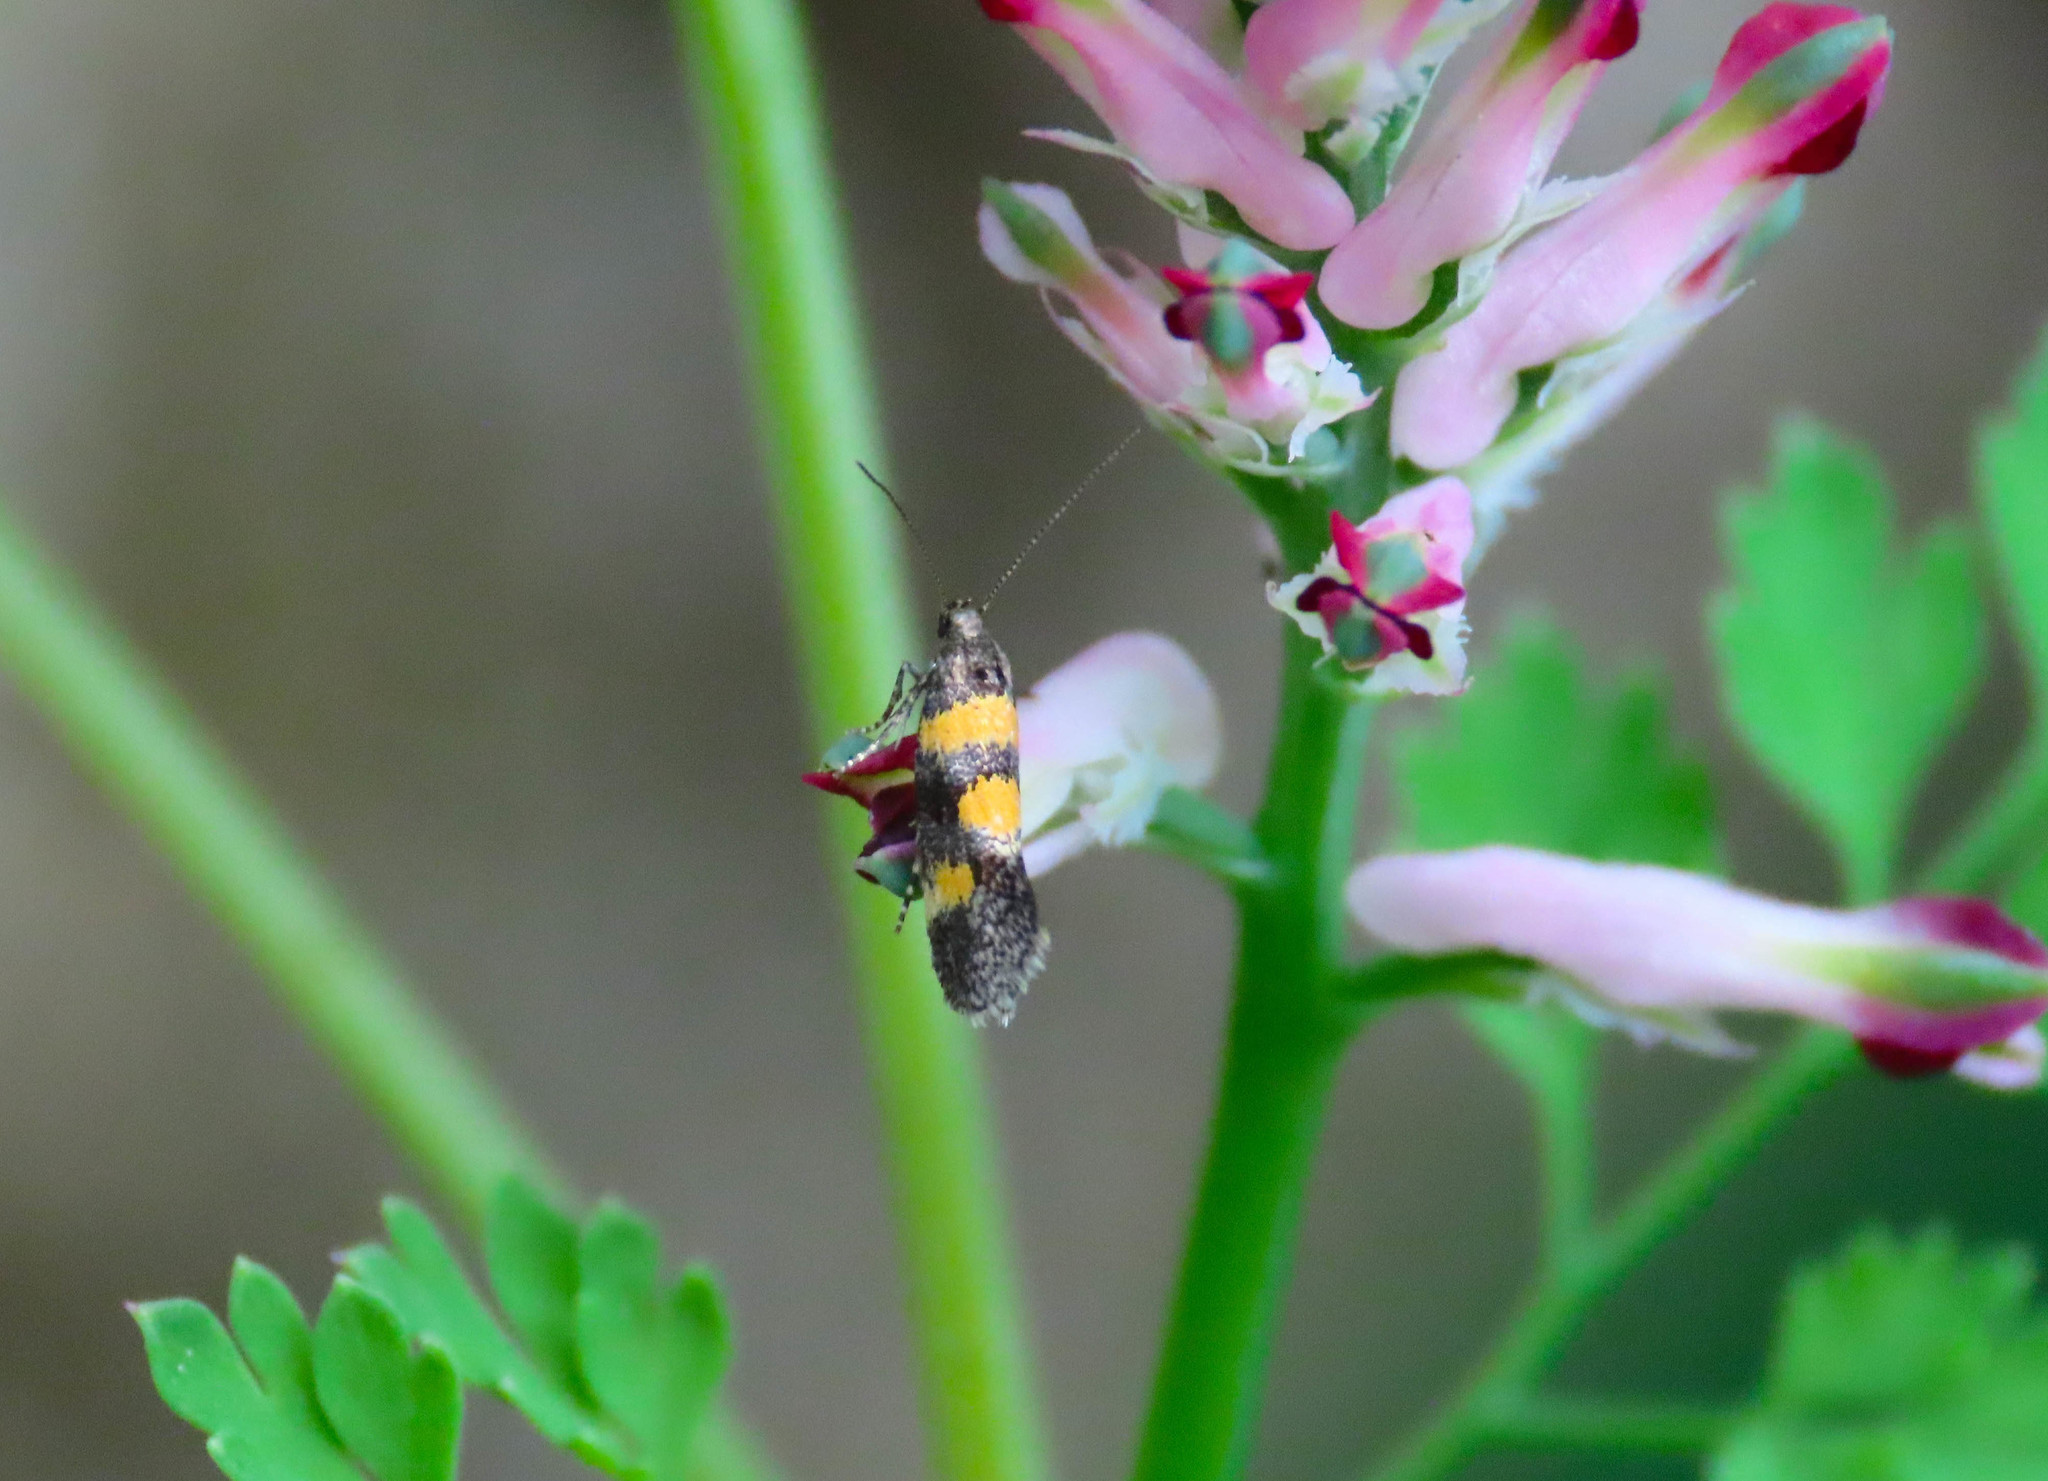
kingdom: Animalia
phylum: Arthropoda
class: Insecta
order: Lepidoptera
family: Gelechiidae
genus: Chrysoesthia
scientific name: Chrysoesthia sexguttella
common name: Moth
